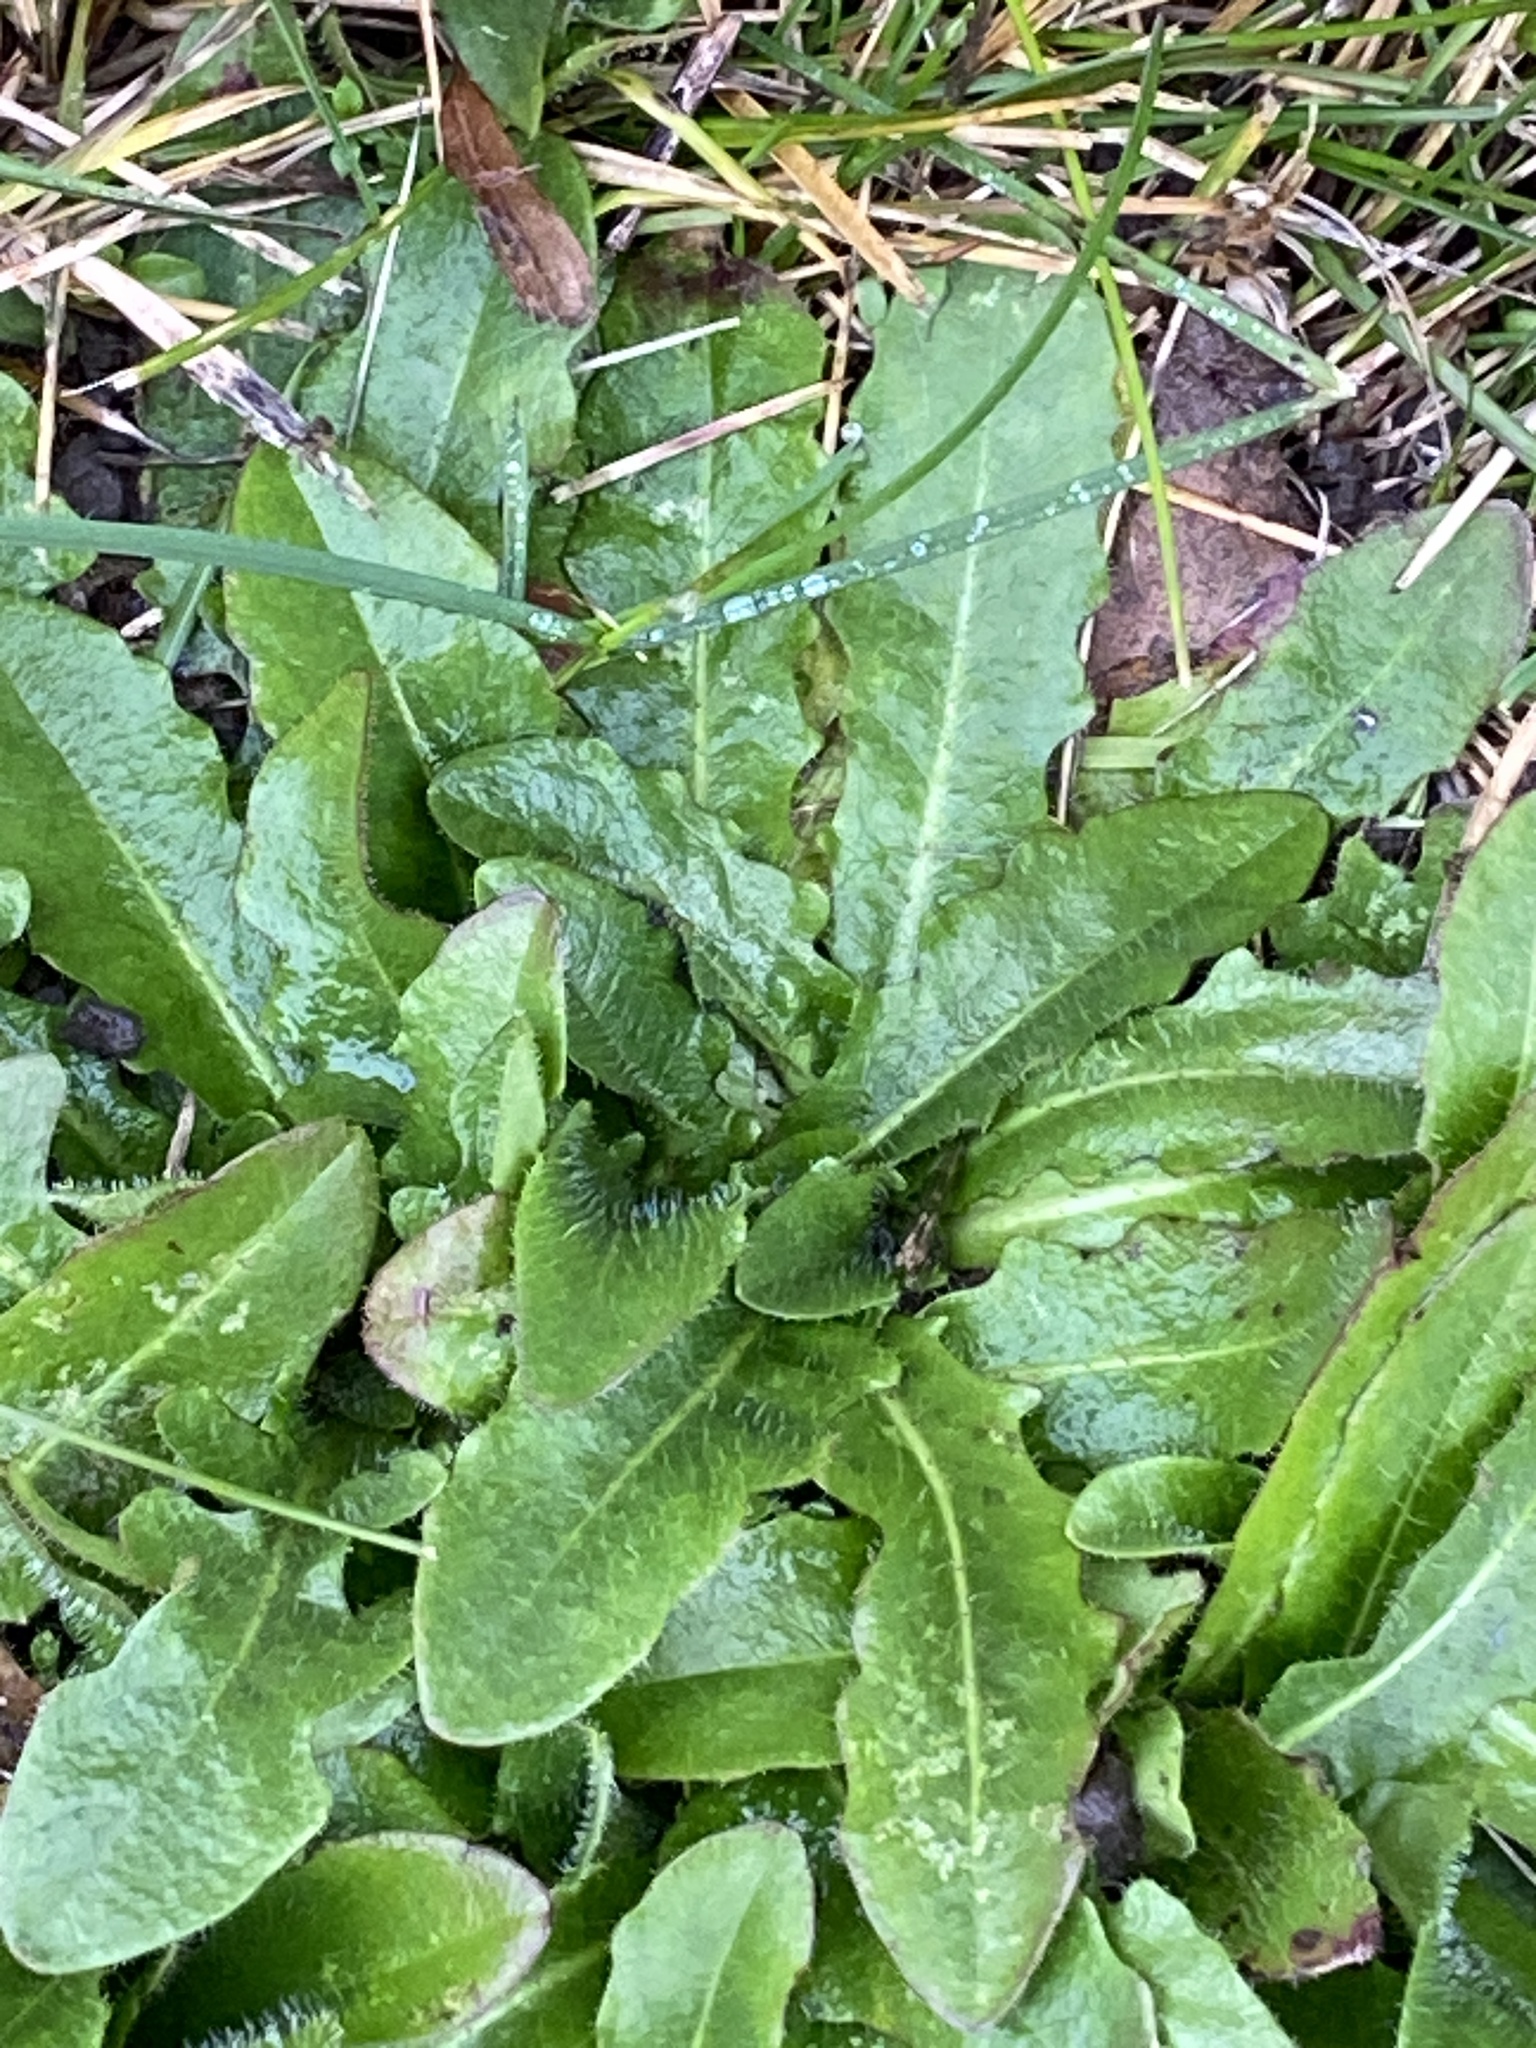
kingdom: Plantae
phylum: Tracheophyta
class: Magnoliopsida
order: Asterales
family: Asteraceae
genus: Hypochaeris
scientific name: Hypochaeris radicata
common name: Flatweed
